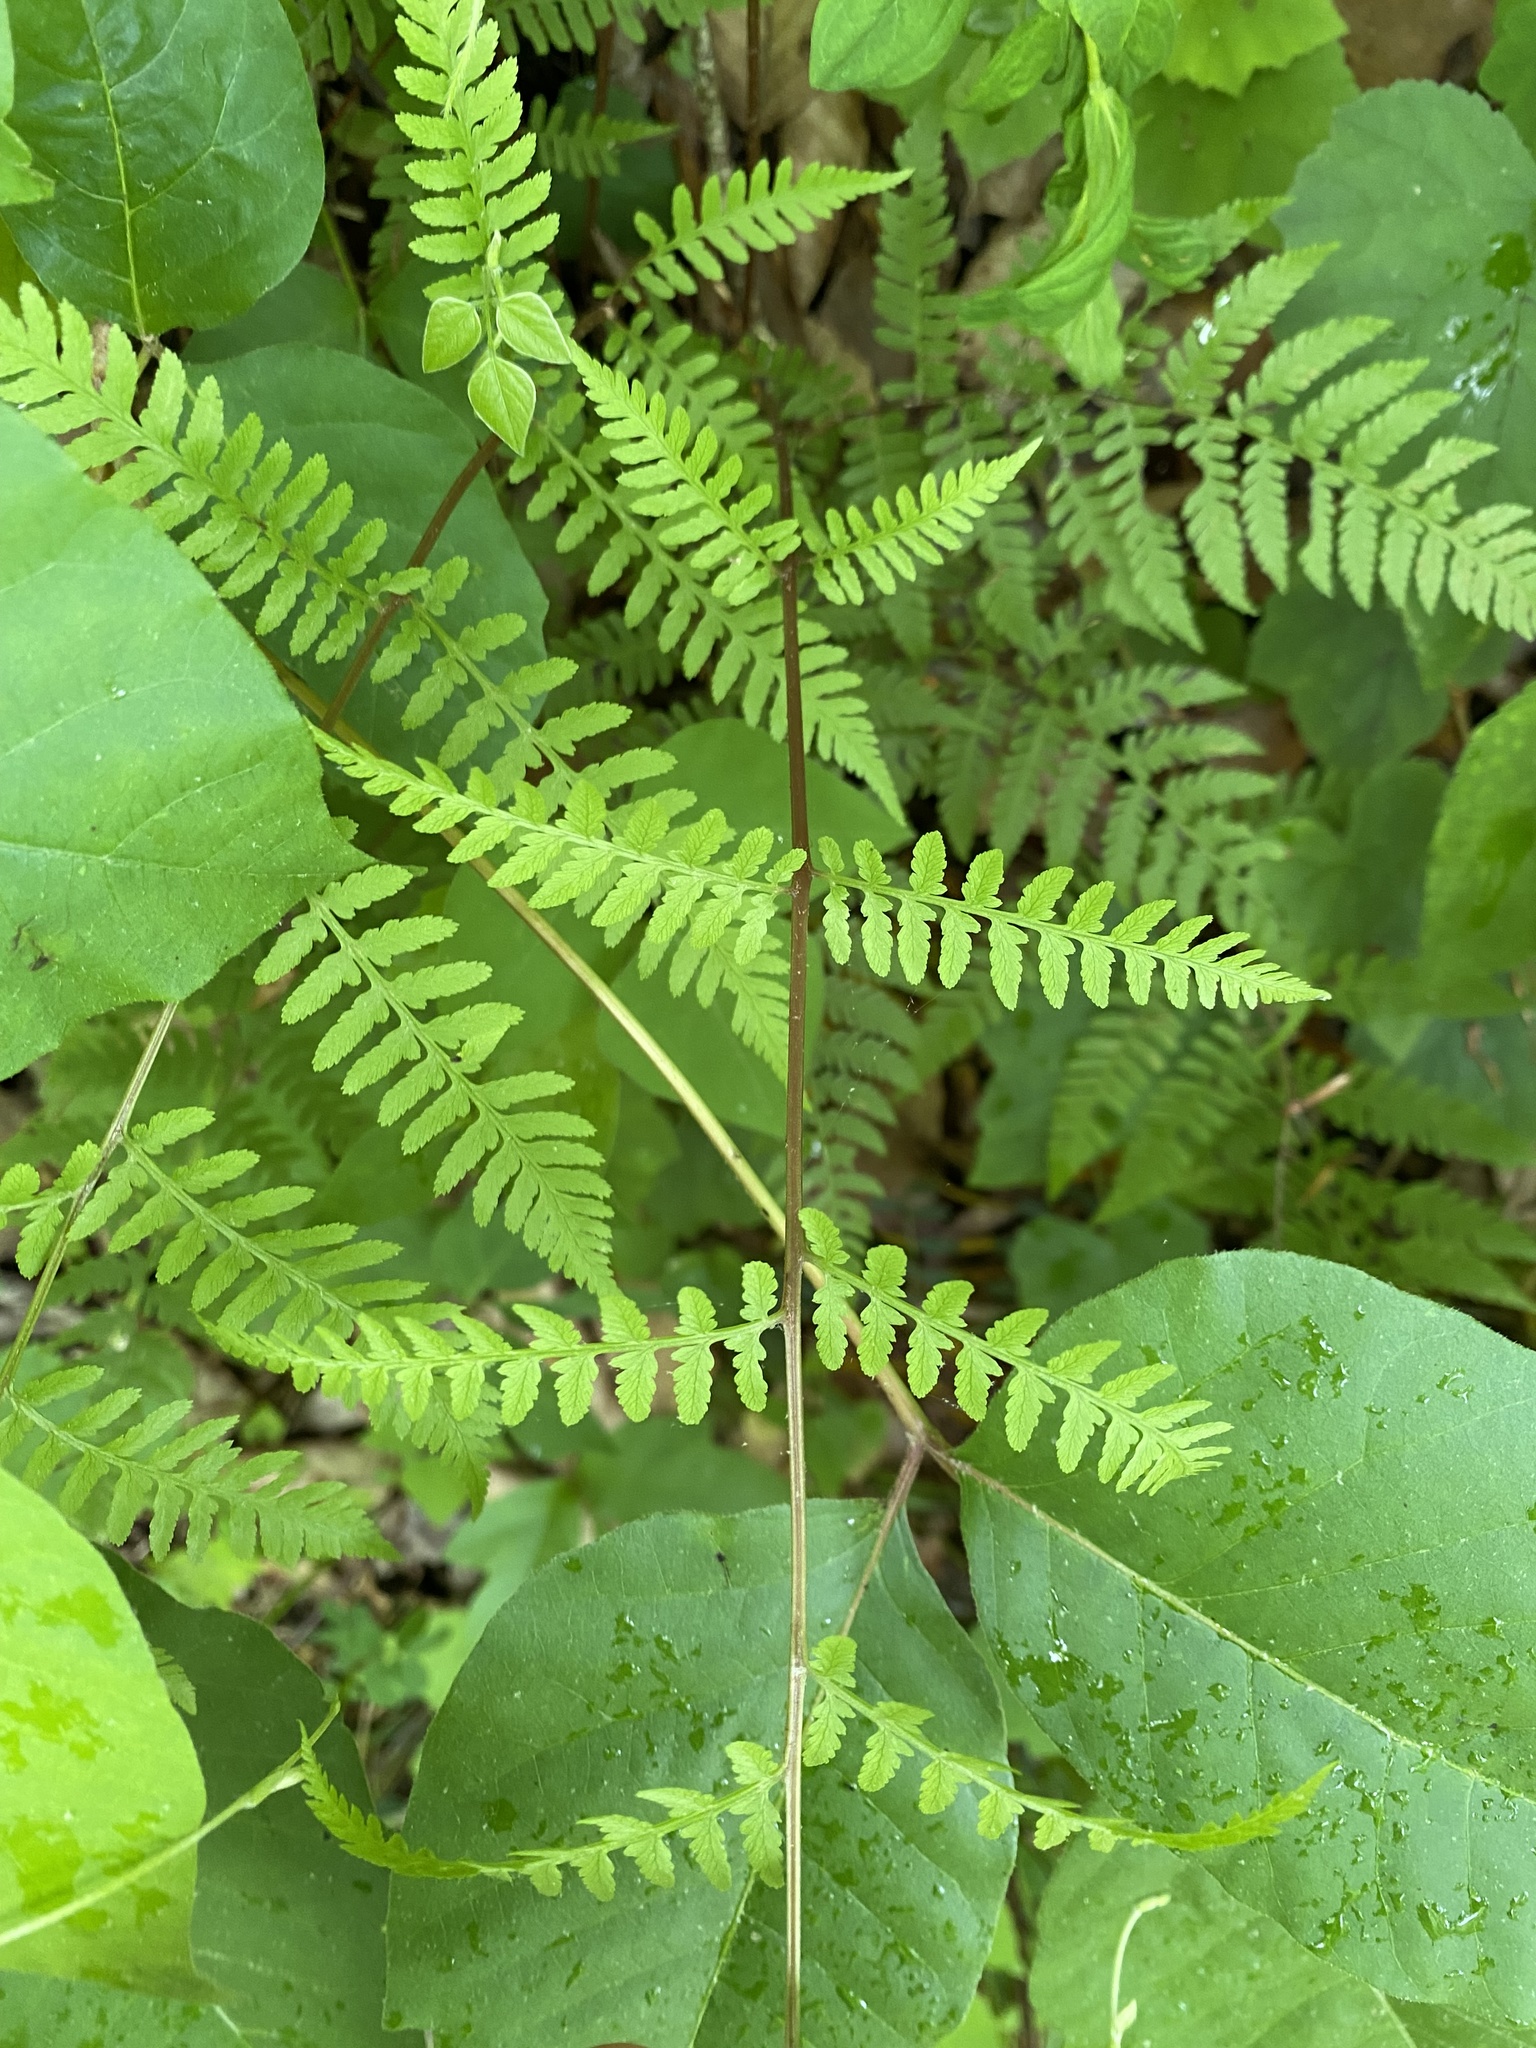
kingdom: Plantae
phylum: Tracheophyta
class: Polypodiopsida
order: Polypodiales
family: Athyriaceae
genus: Athyrium
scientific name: Athyrium asplenioides
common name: Southern lady fern
